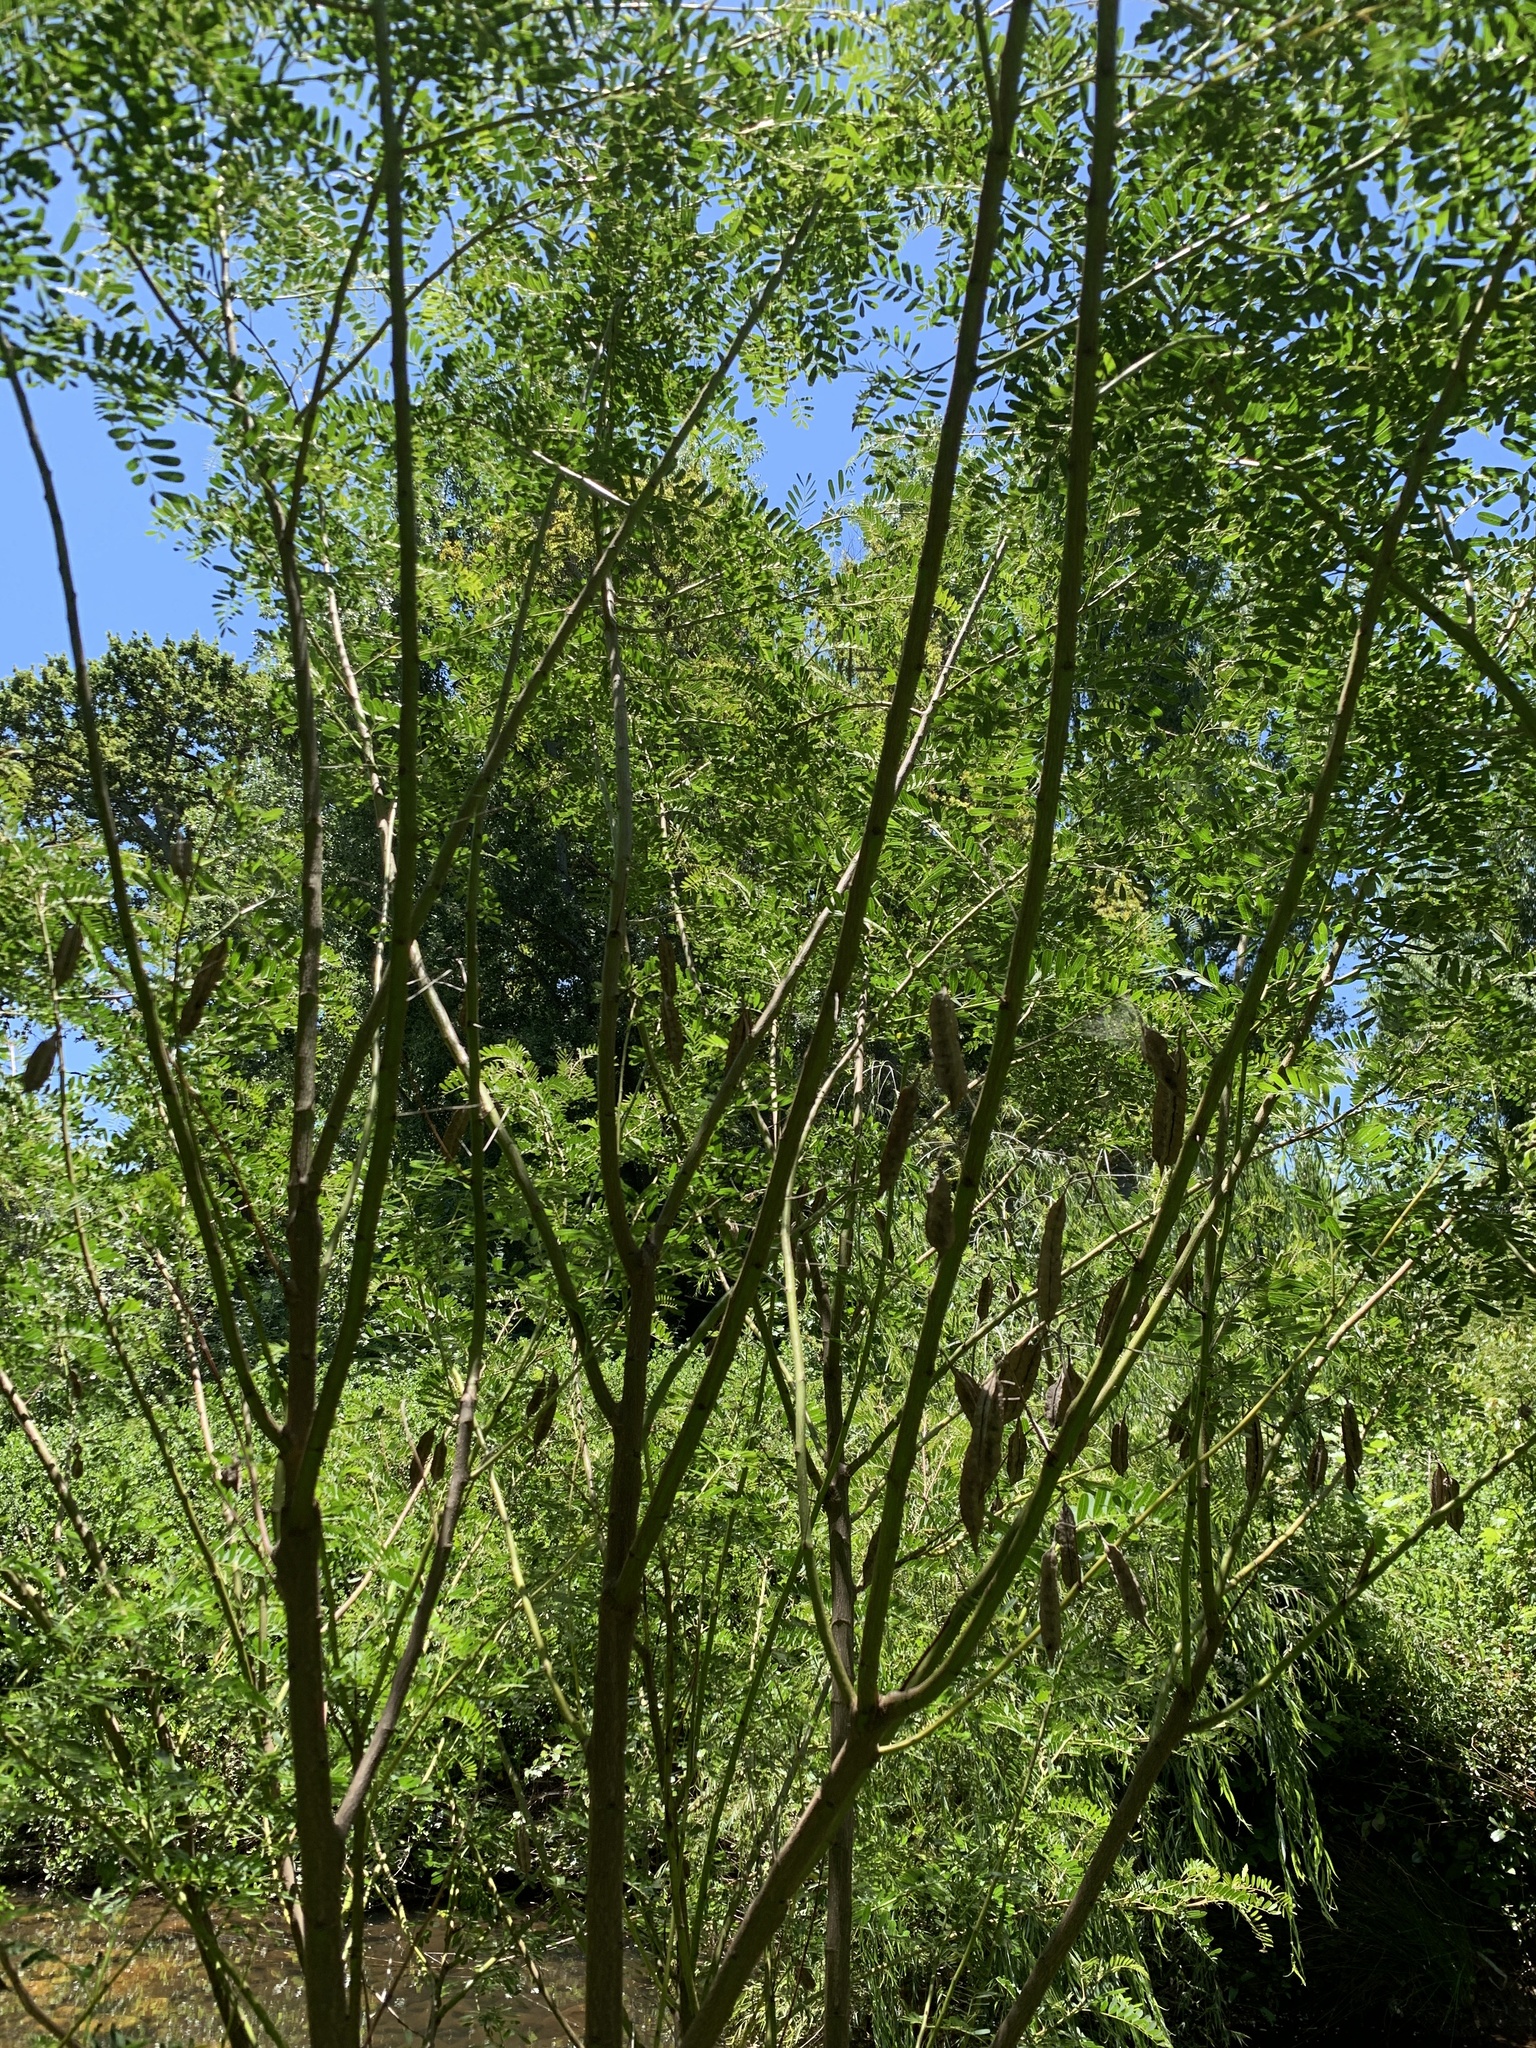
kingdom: Plantae
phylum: Tracheophyta
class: Magnoliopsida
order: Fabales
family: Fabaceae
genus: Sesbania
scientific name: Sesbania punicea
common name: Rattlebox
